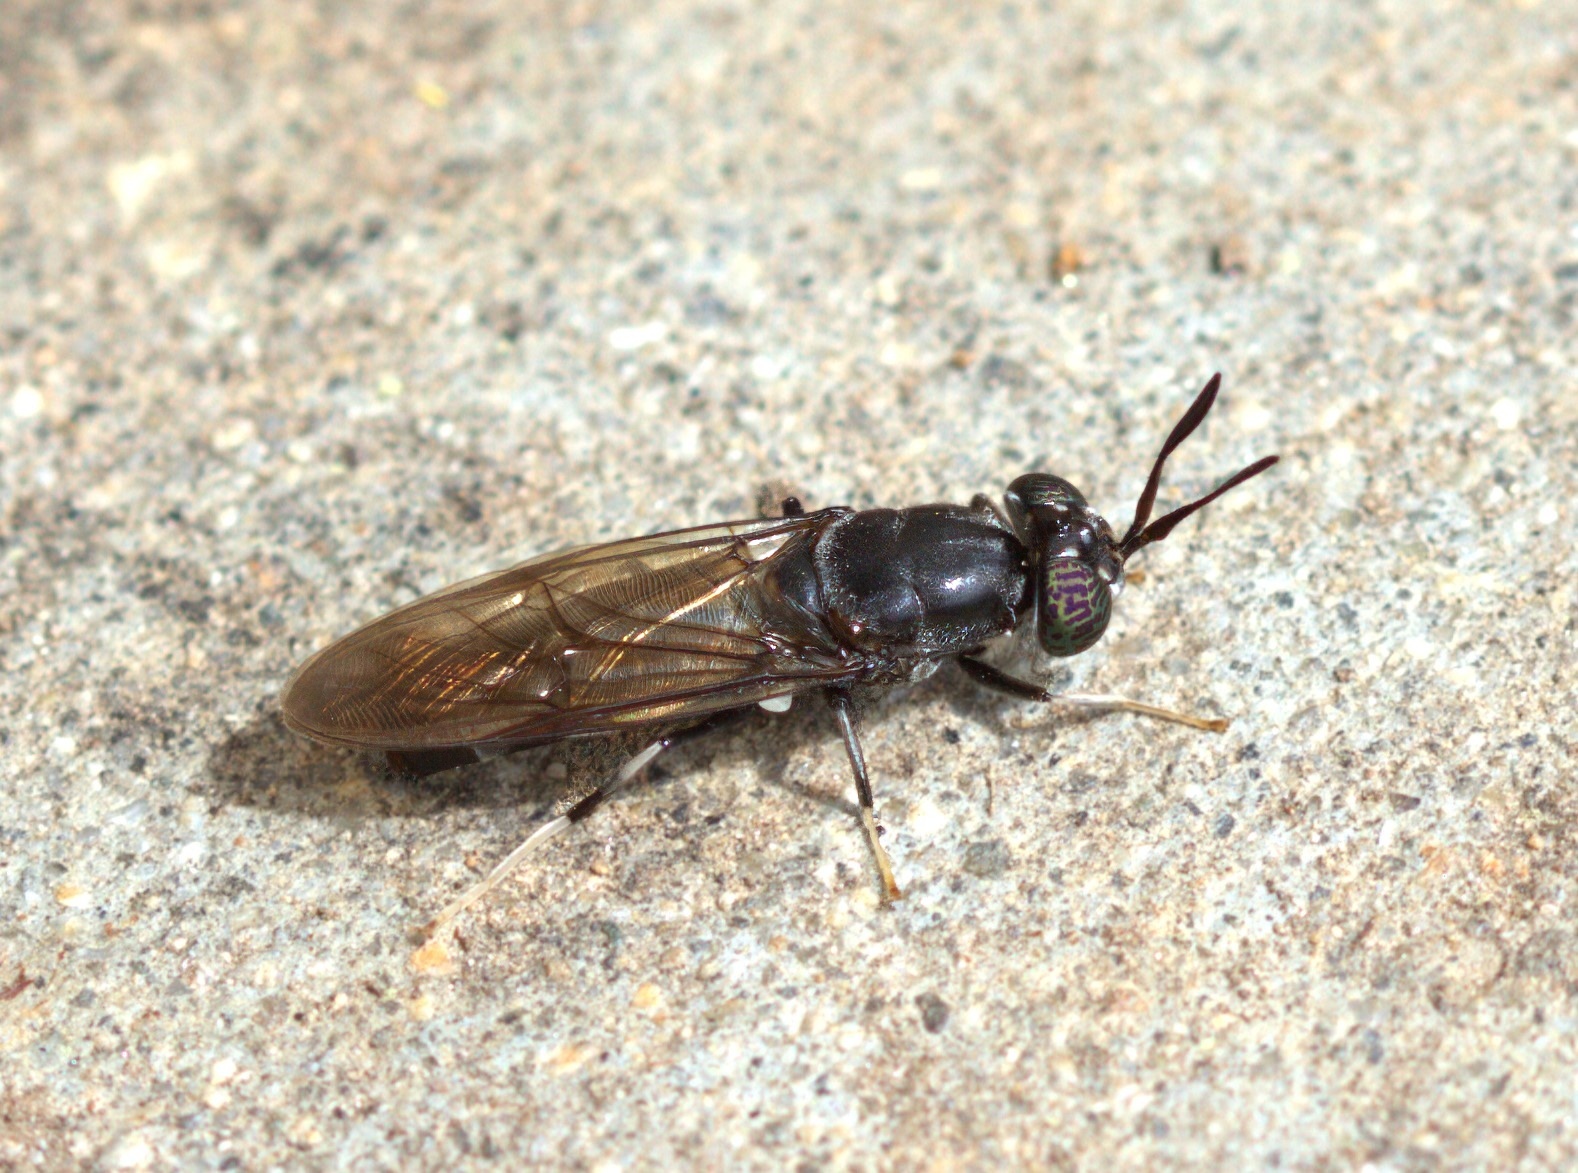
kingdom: Animalia
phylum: Arthropoda
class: Insecta
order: Diptera
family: Stratiomyidae
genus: Hermetia
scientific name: Hermetia illucens
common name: Black soldier fly
